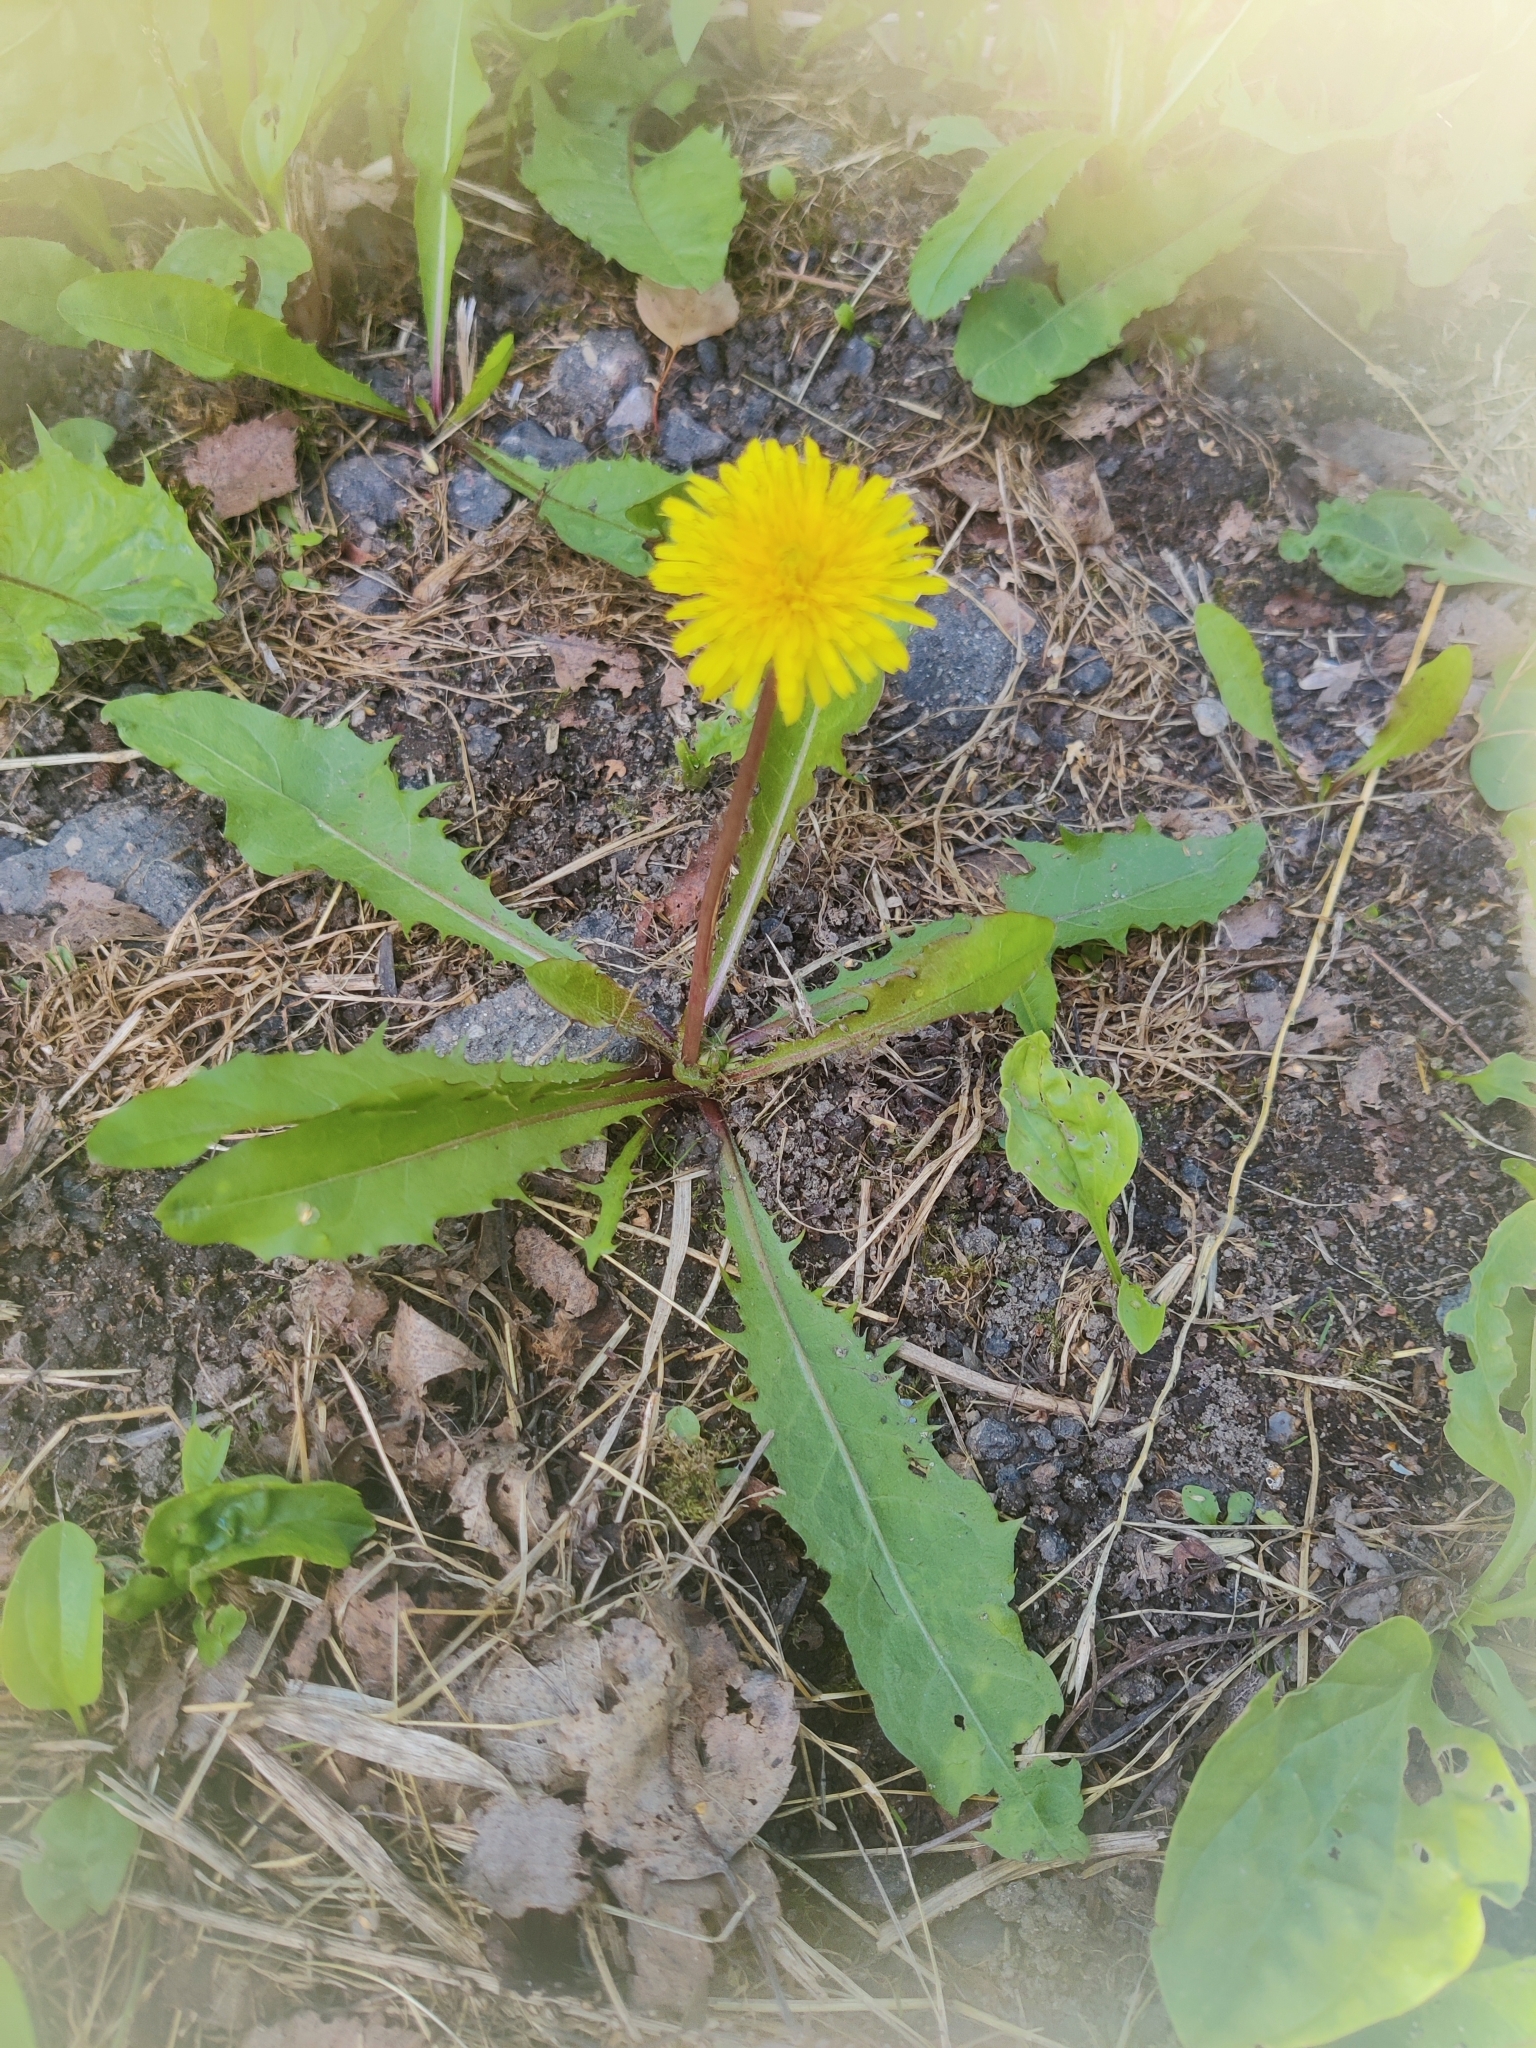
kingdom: Plantae
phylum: Tracheophyta
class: Magnoliopsida
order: Asterales
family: Asteraceae
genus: Taraxacum
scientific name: Taraxacum officinale
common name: Common dandelion
